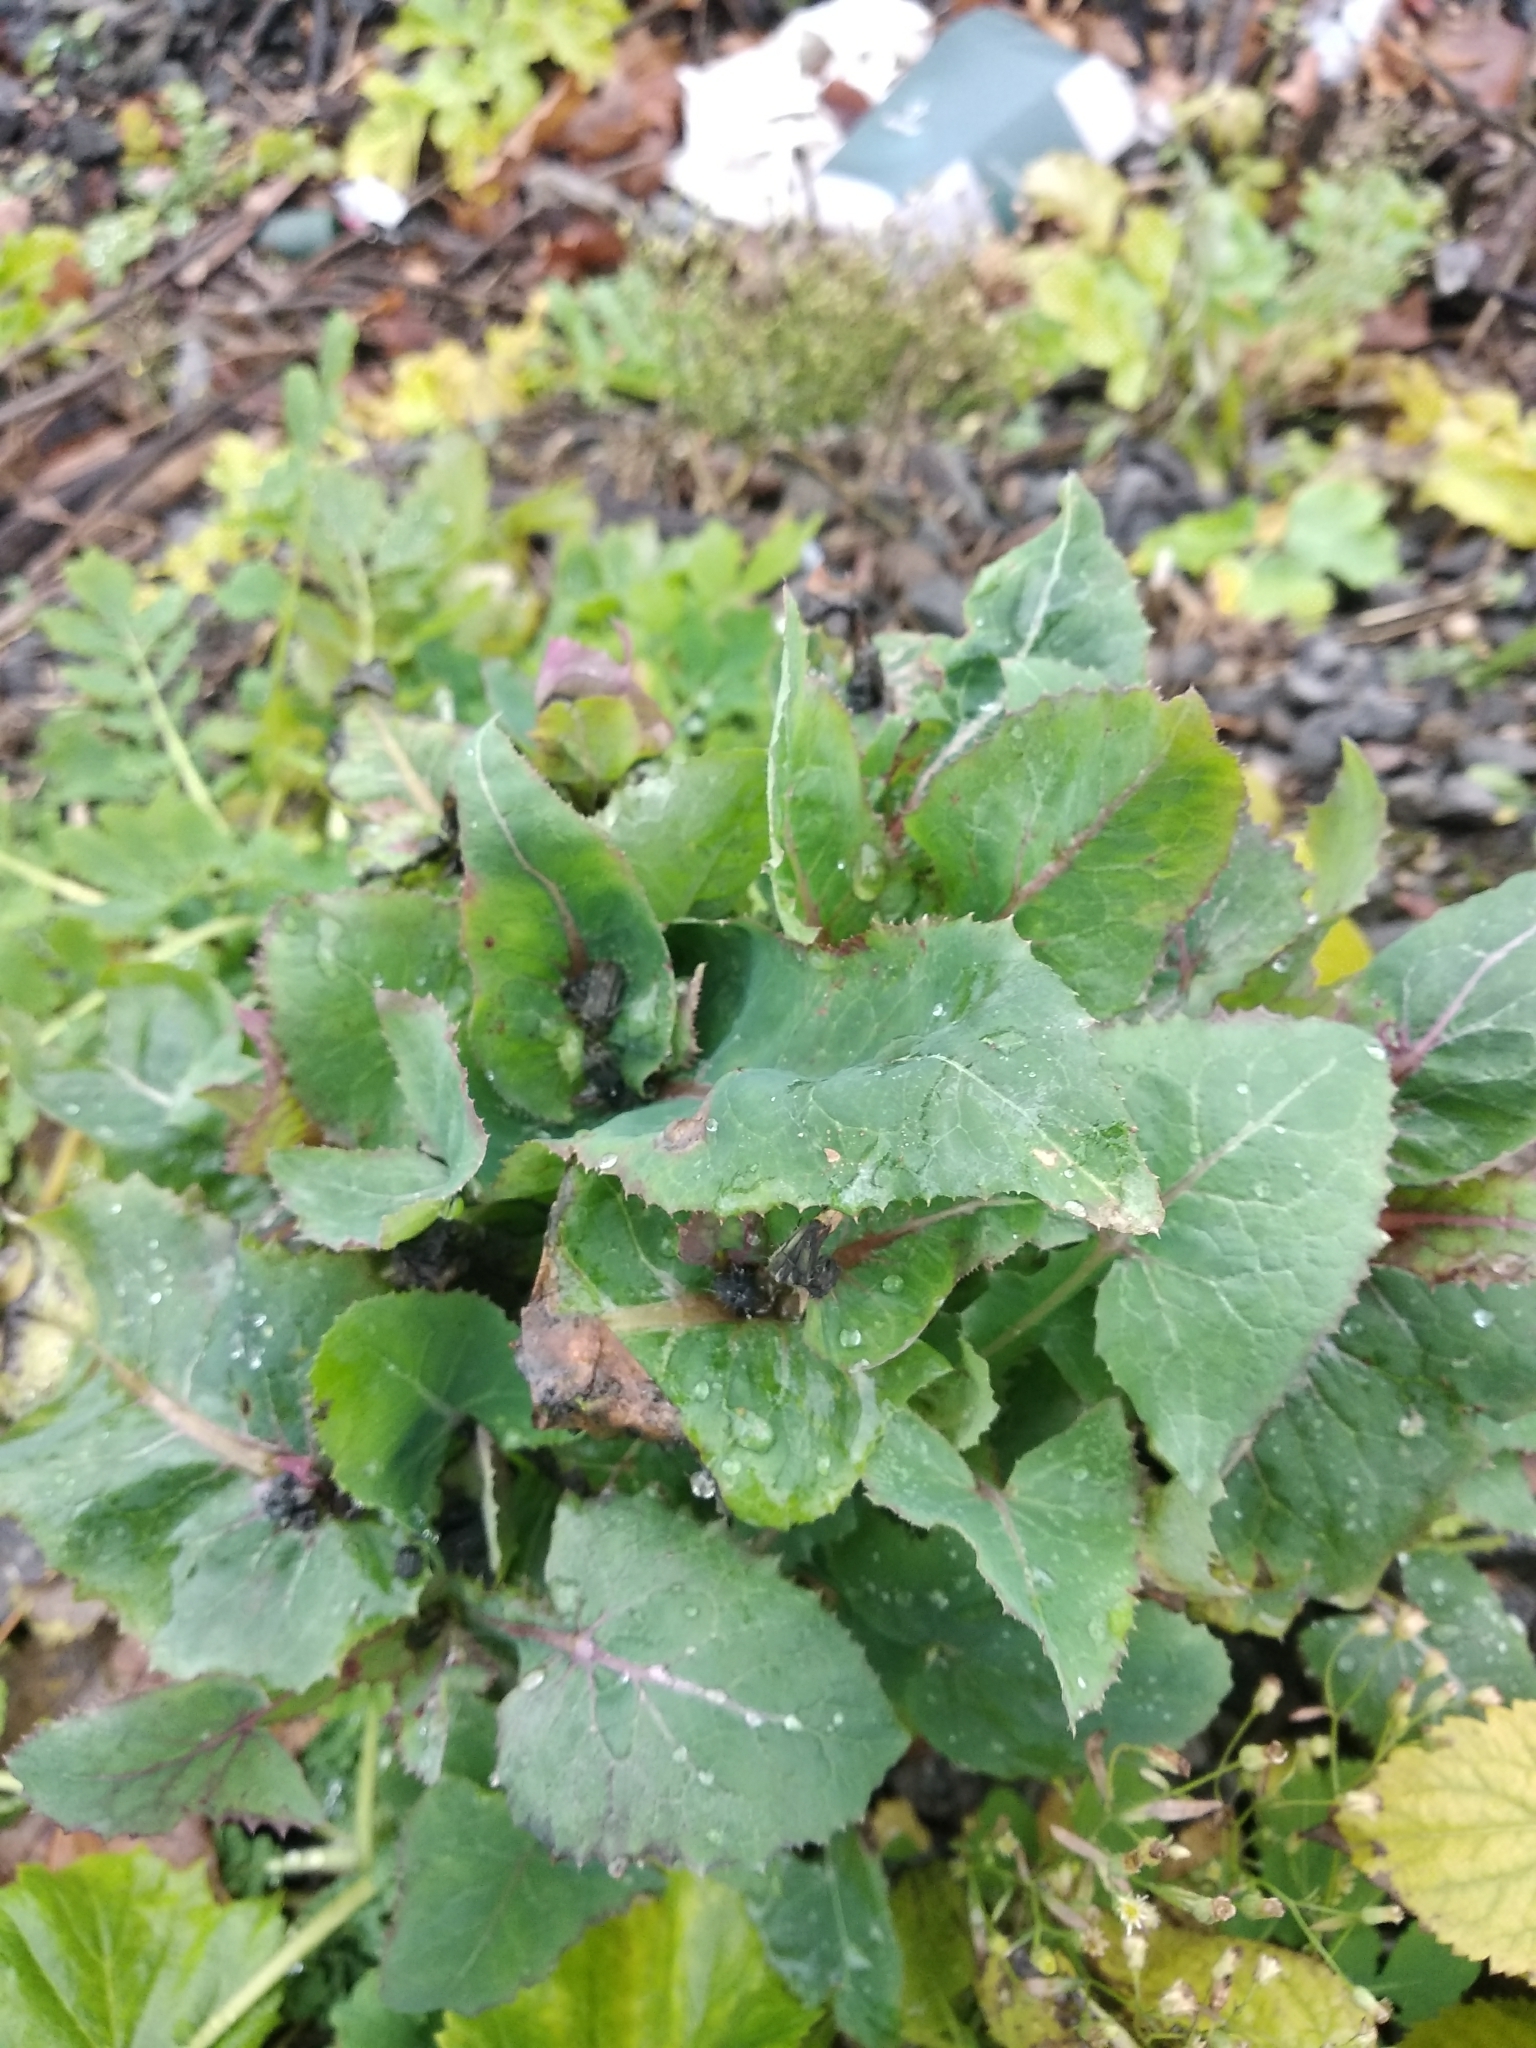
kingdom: Plantae
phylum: Tracheophyta
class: Magnoliopsida
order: Asterales
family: Asteraceae
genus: Sonchus
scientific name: Sonchus oleraceus
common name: Common sowthistle
